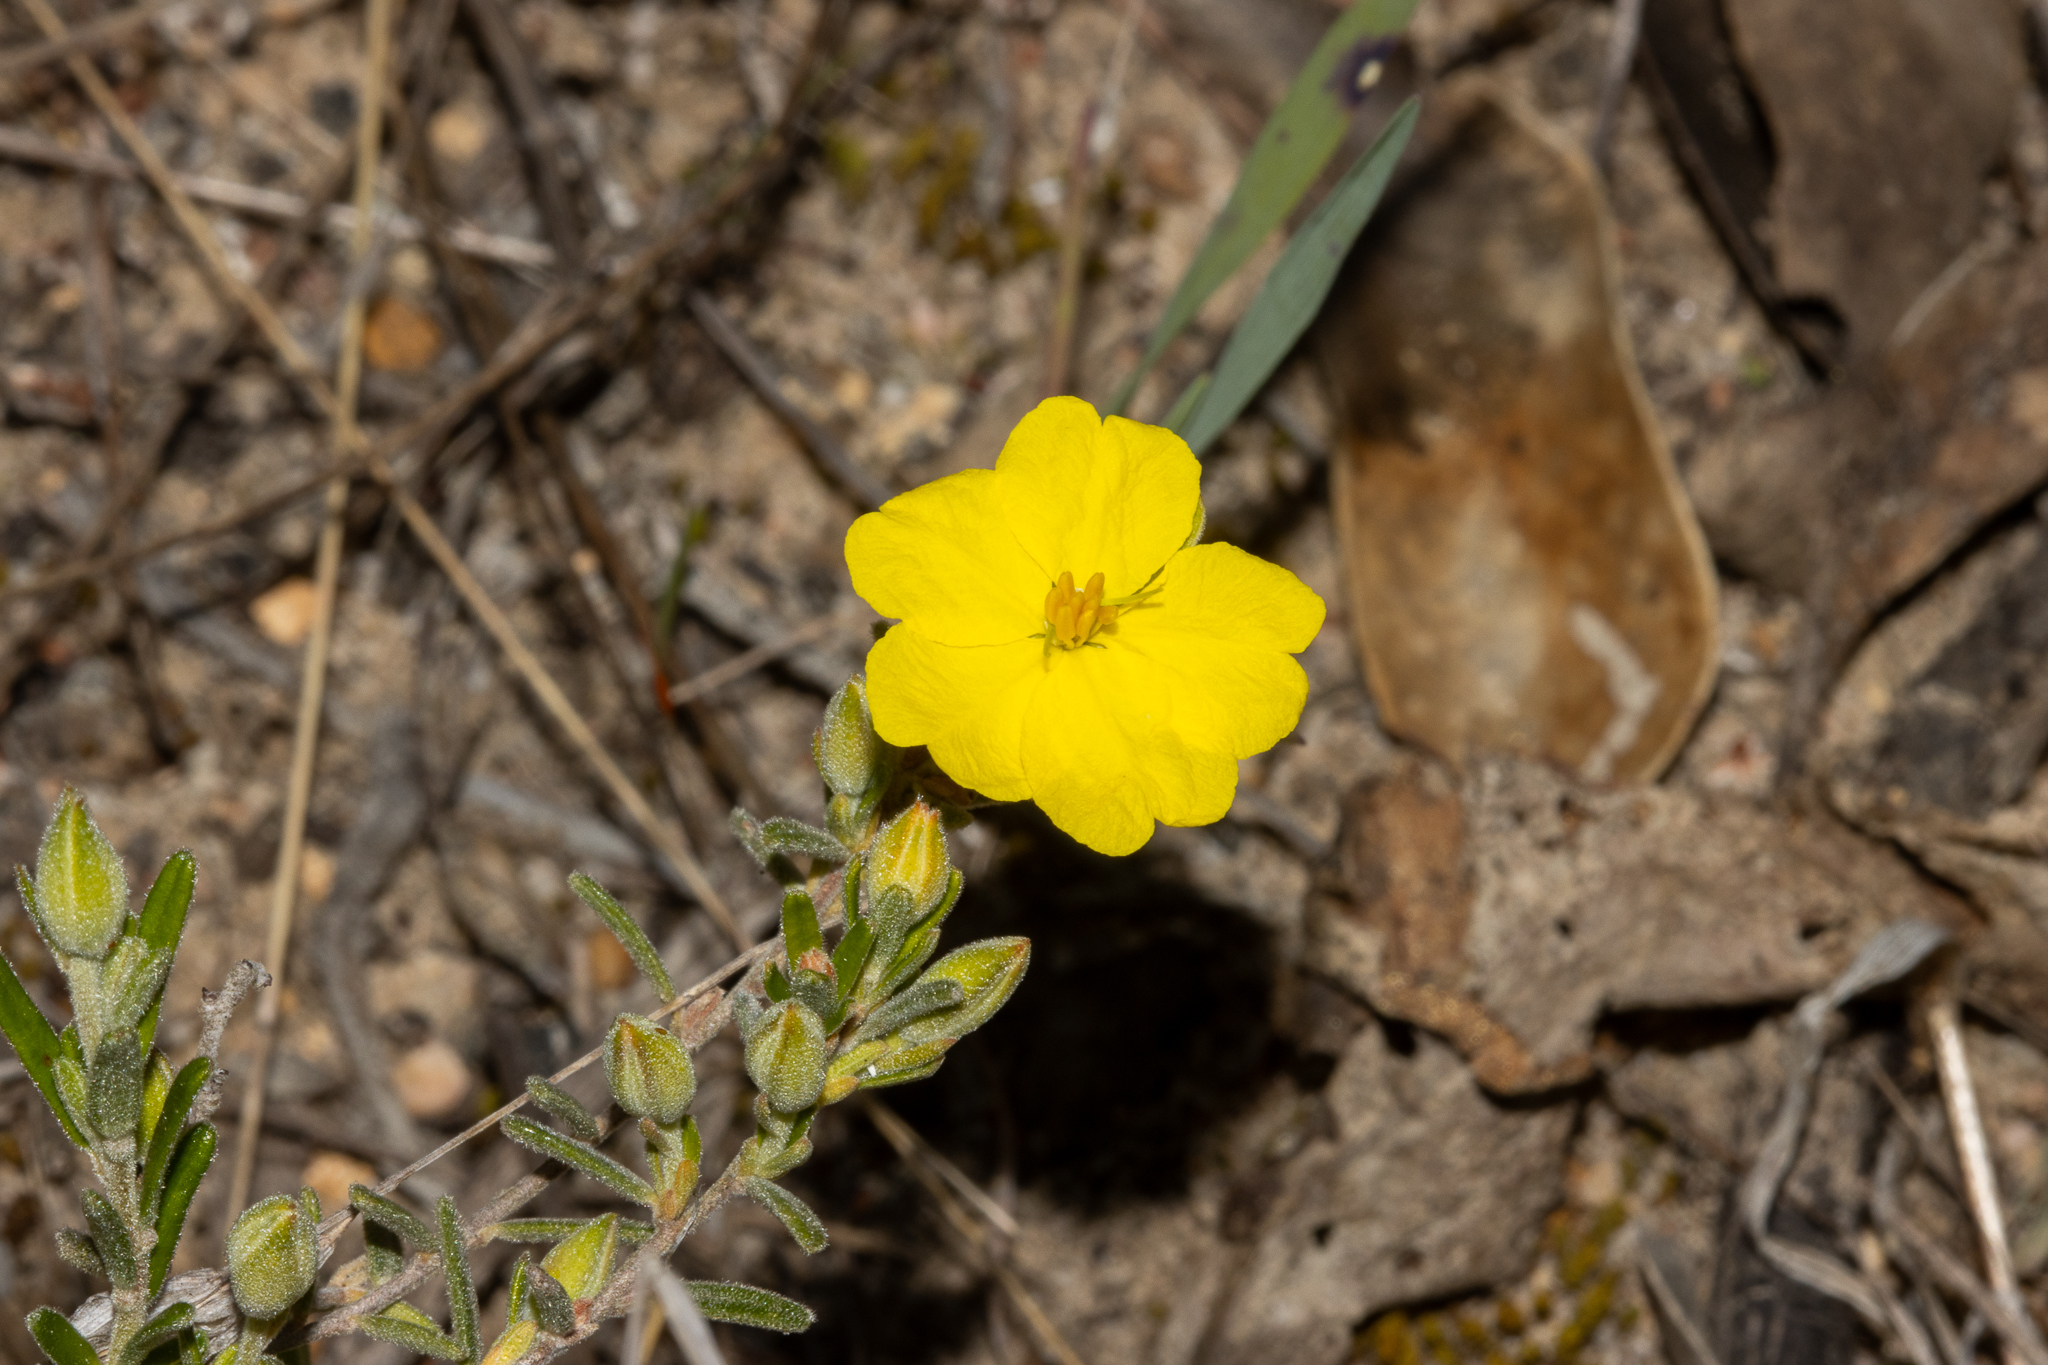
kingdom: Plantae
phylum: Tracheophyta
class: Magnoliopsida
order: Dilleniales
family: Dilleniaceae
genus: Hibbertia
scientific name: Hibbertia australis
